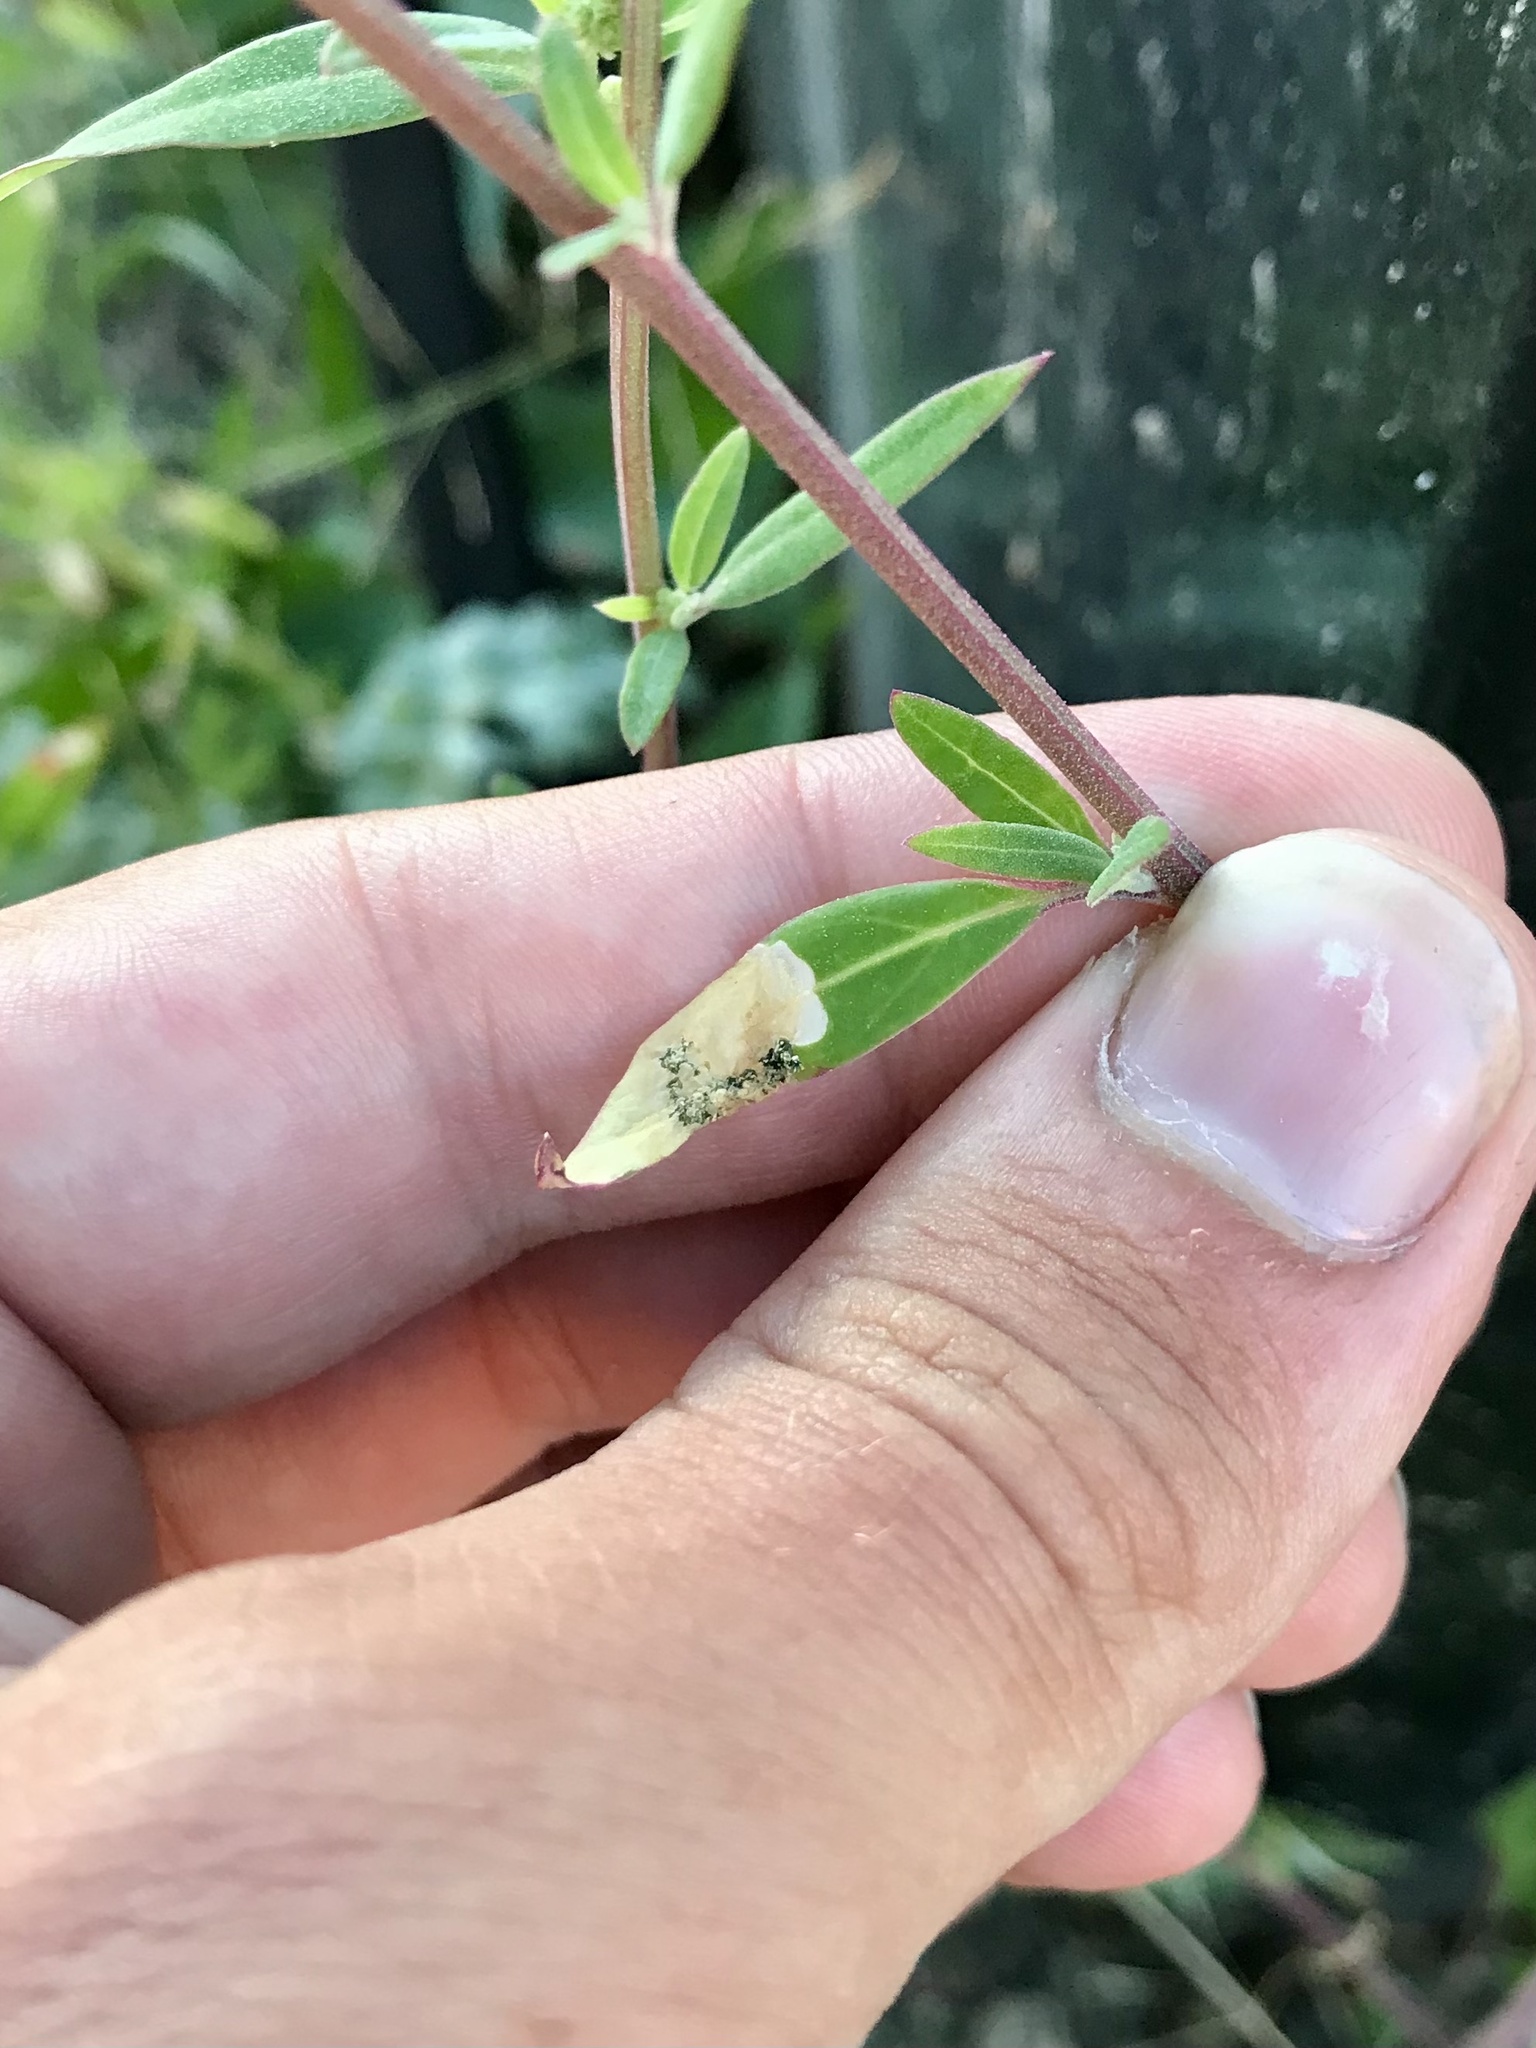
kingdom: Animalia
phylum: Arthropoda
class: Insecta
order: Lepidoptera
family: Gelechiidae
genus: Chrysoesthia
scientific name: Chrysoesthia sexguttella
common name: Moth
